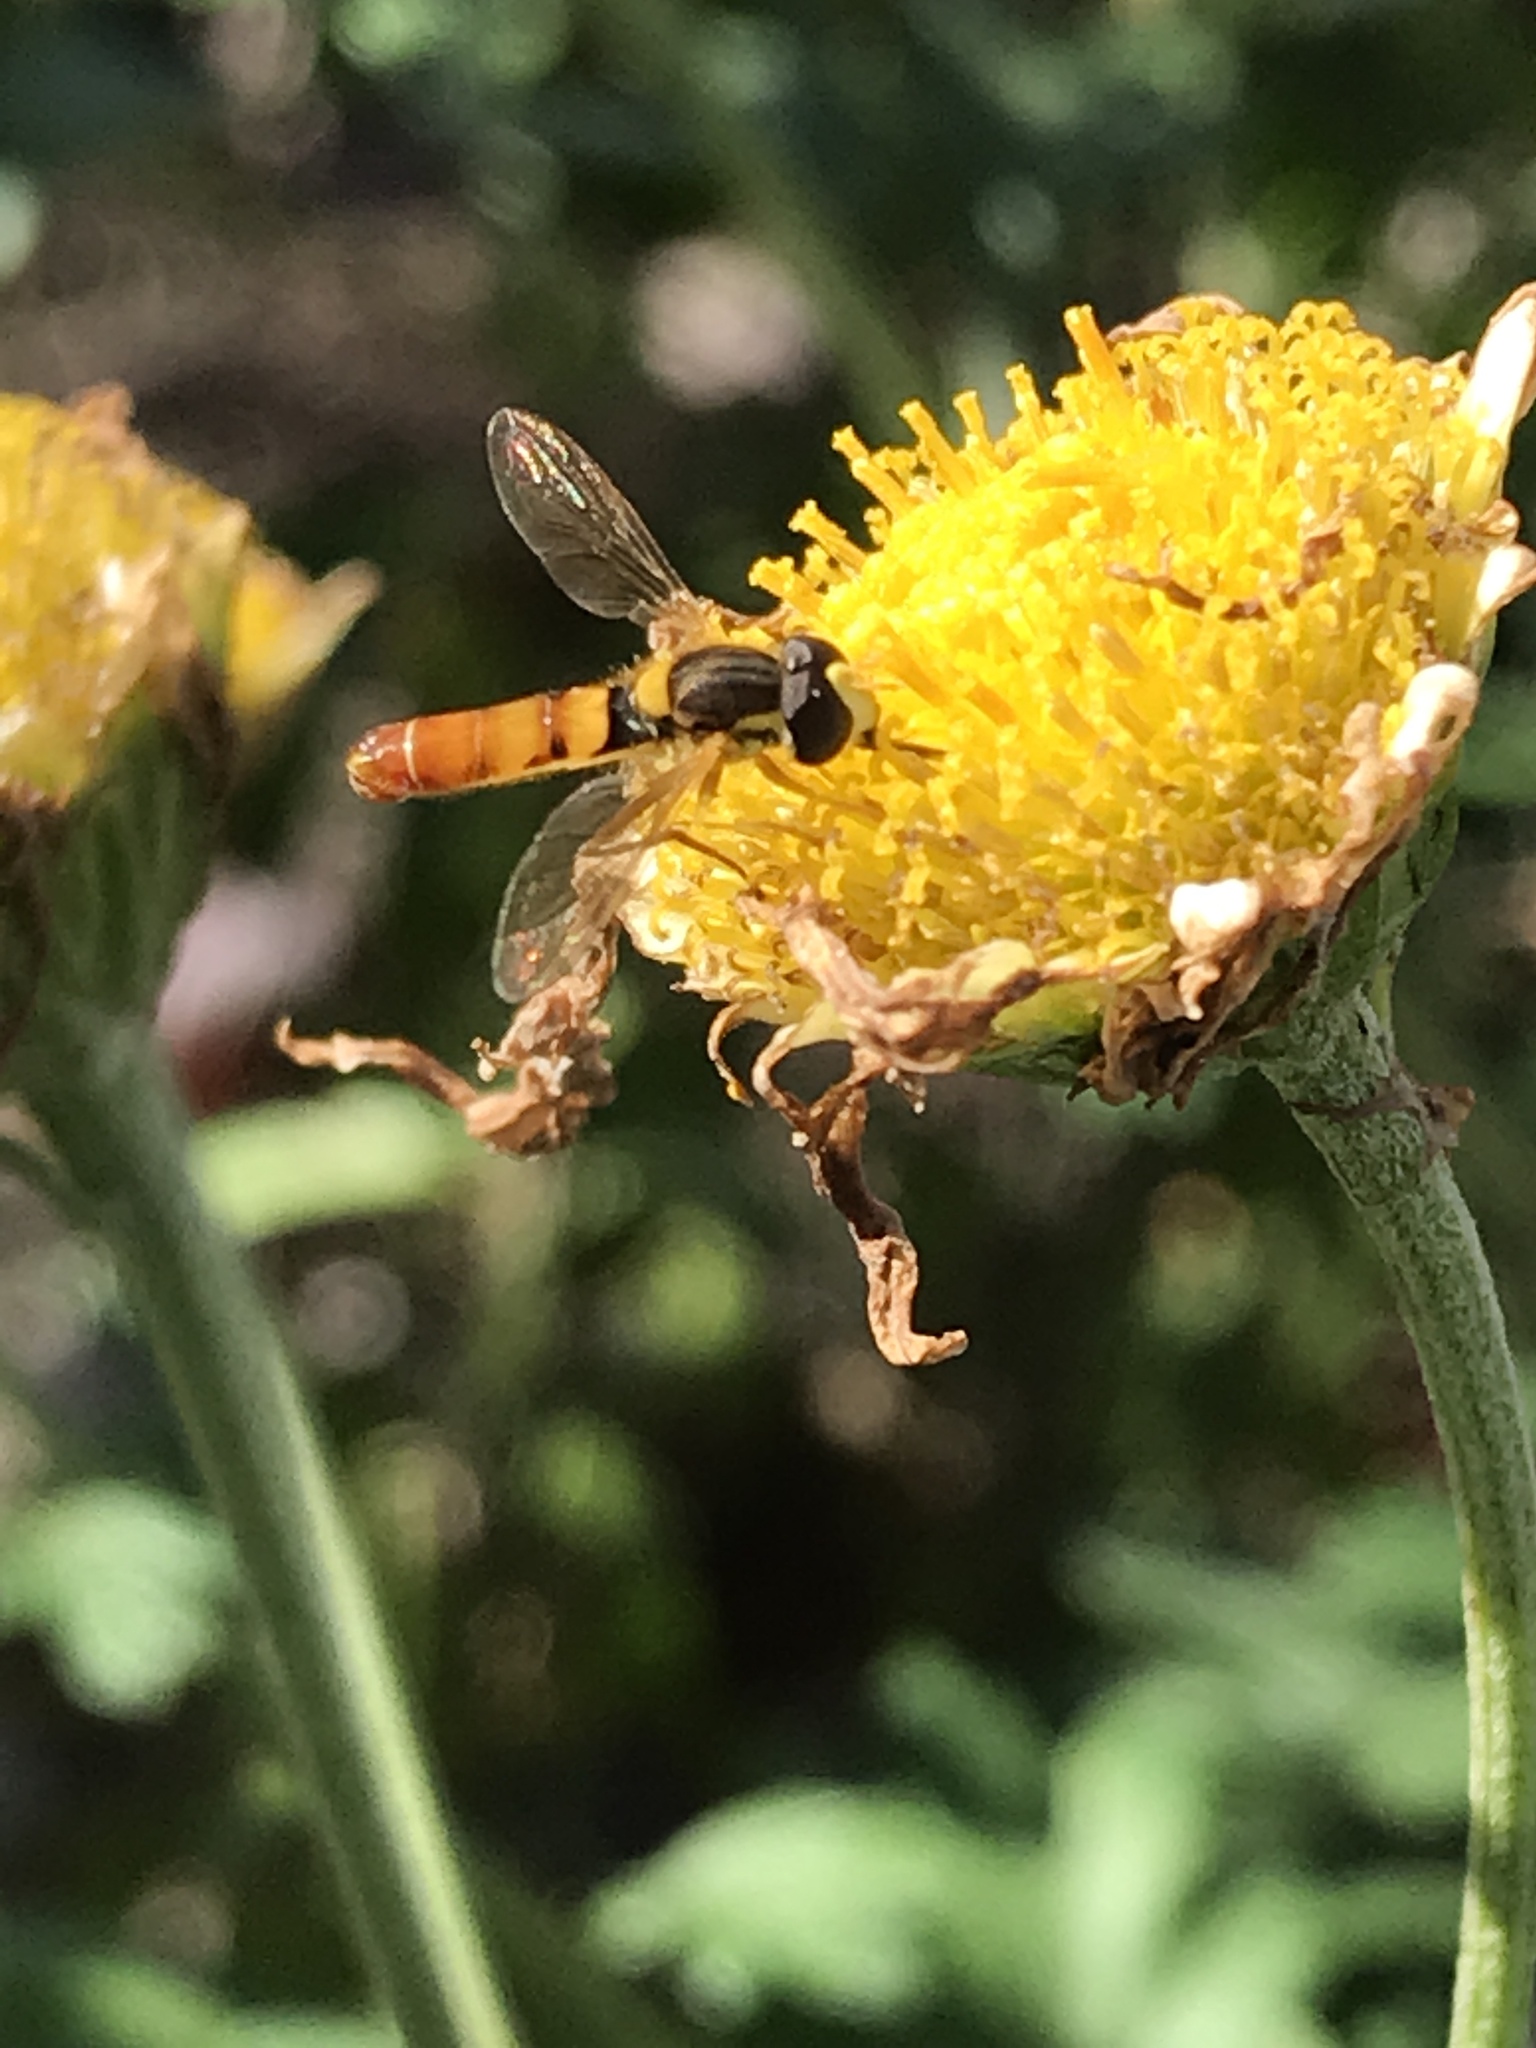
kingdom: Animalia
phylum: Arthropoda
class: Insecta
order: Diptera
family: Syrphidae
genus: Sphaerophoria
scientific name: Sphaerophoria contigua
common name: Tufted globetail
